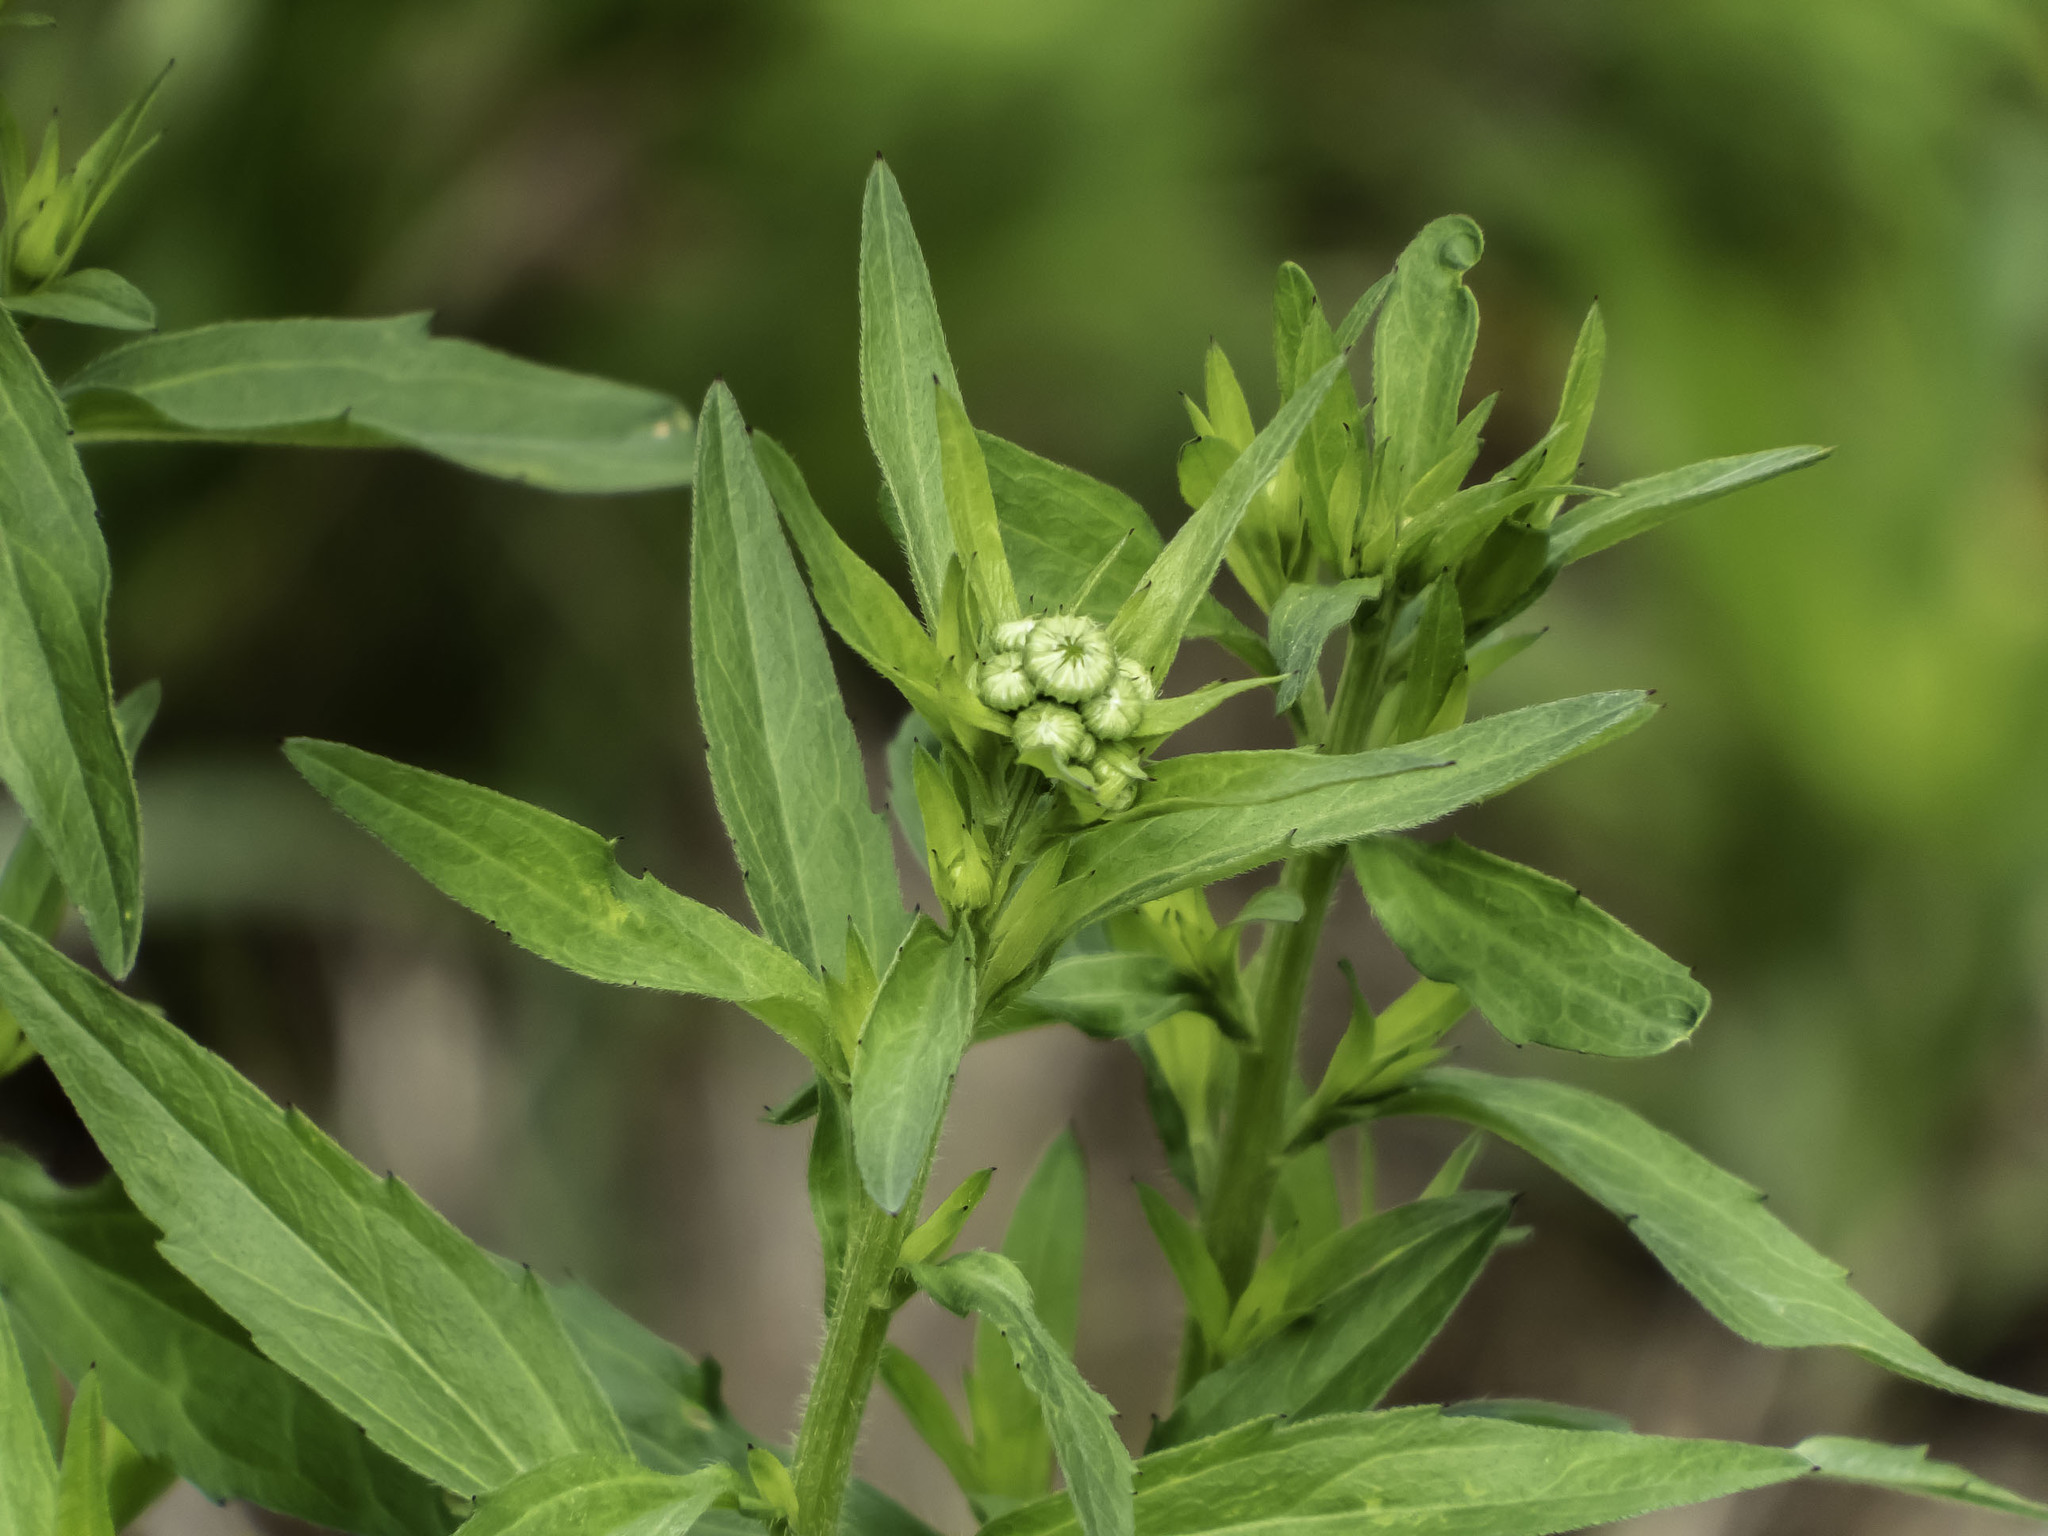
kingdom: Plantae
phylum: Tracheophyta
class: Magnoliopsida
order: Asterales
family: Asteraceae
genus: Erigeron
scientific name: Erigeron annuus
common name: Tall fleabane
